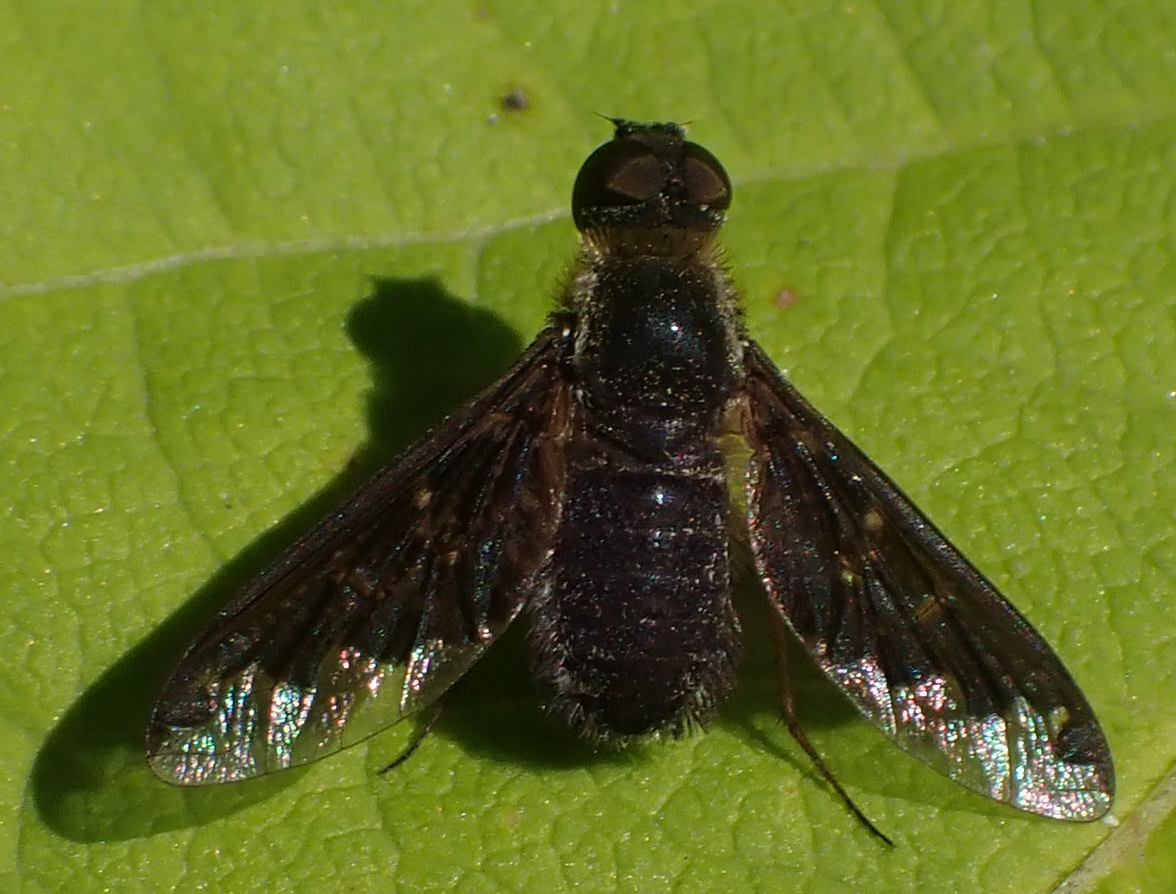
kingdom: Animalia
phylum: Arthropoda
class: Insecta
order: Diptera
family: Bombyliidae
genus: Hemipenthes
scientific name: Hemipenthes sinuosus
